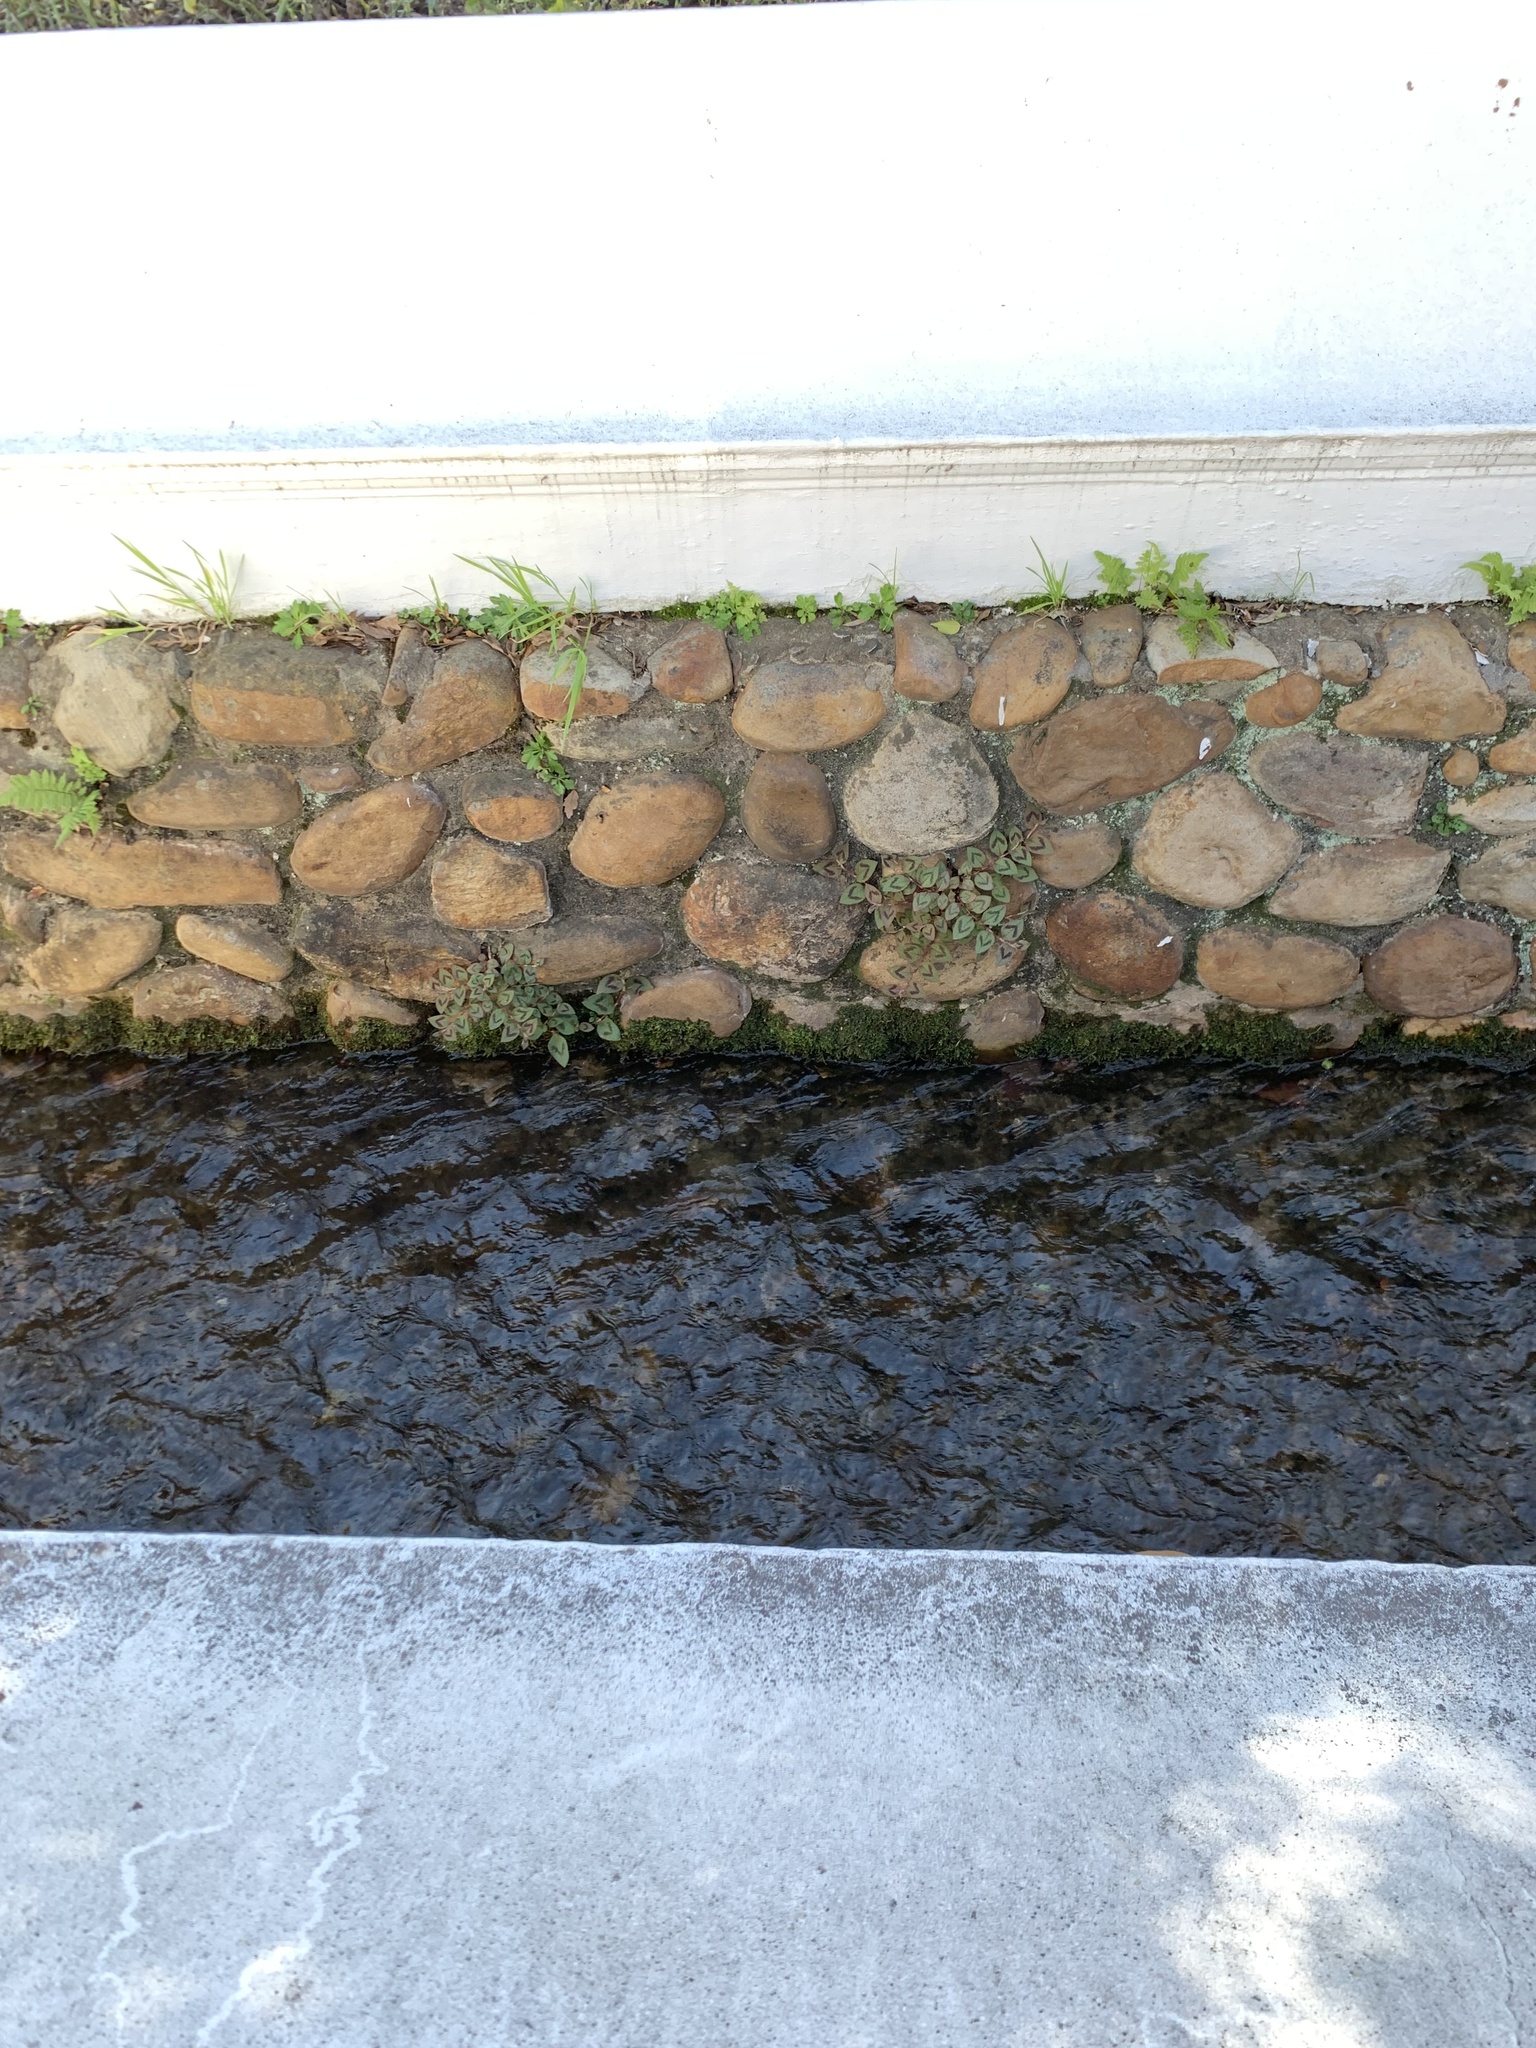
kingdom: Plantae
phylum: Tracheophyta
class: Magnoliopsida
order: Caryophyllales
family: Polygonaceae
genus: Persicaria
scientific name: Persicaria capitata
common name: Pinkhead smartweed
